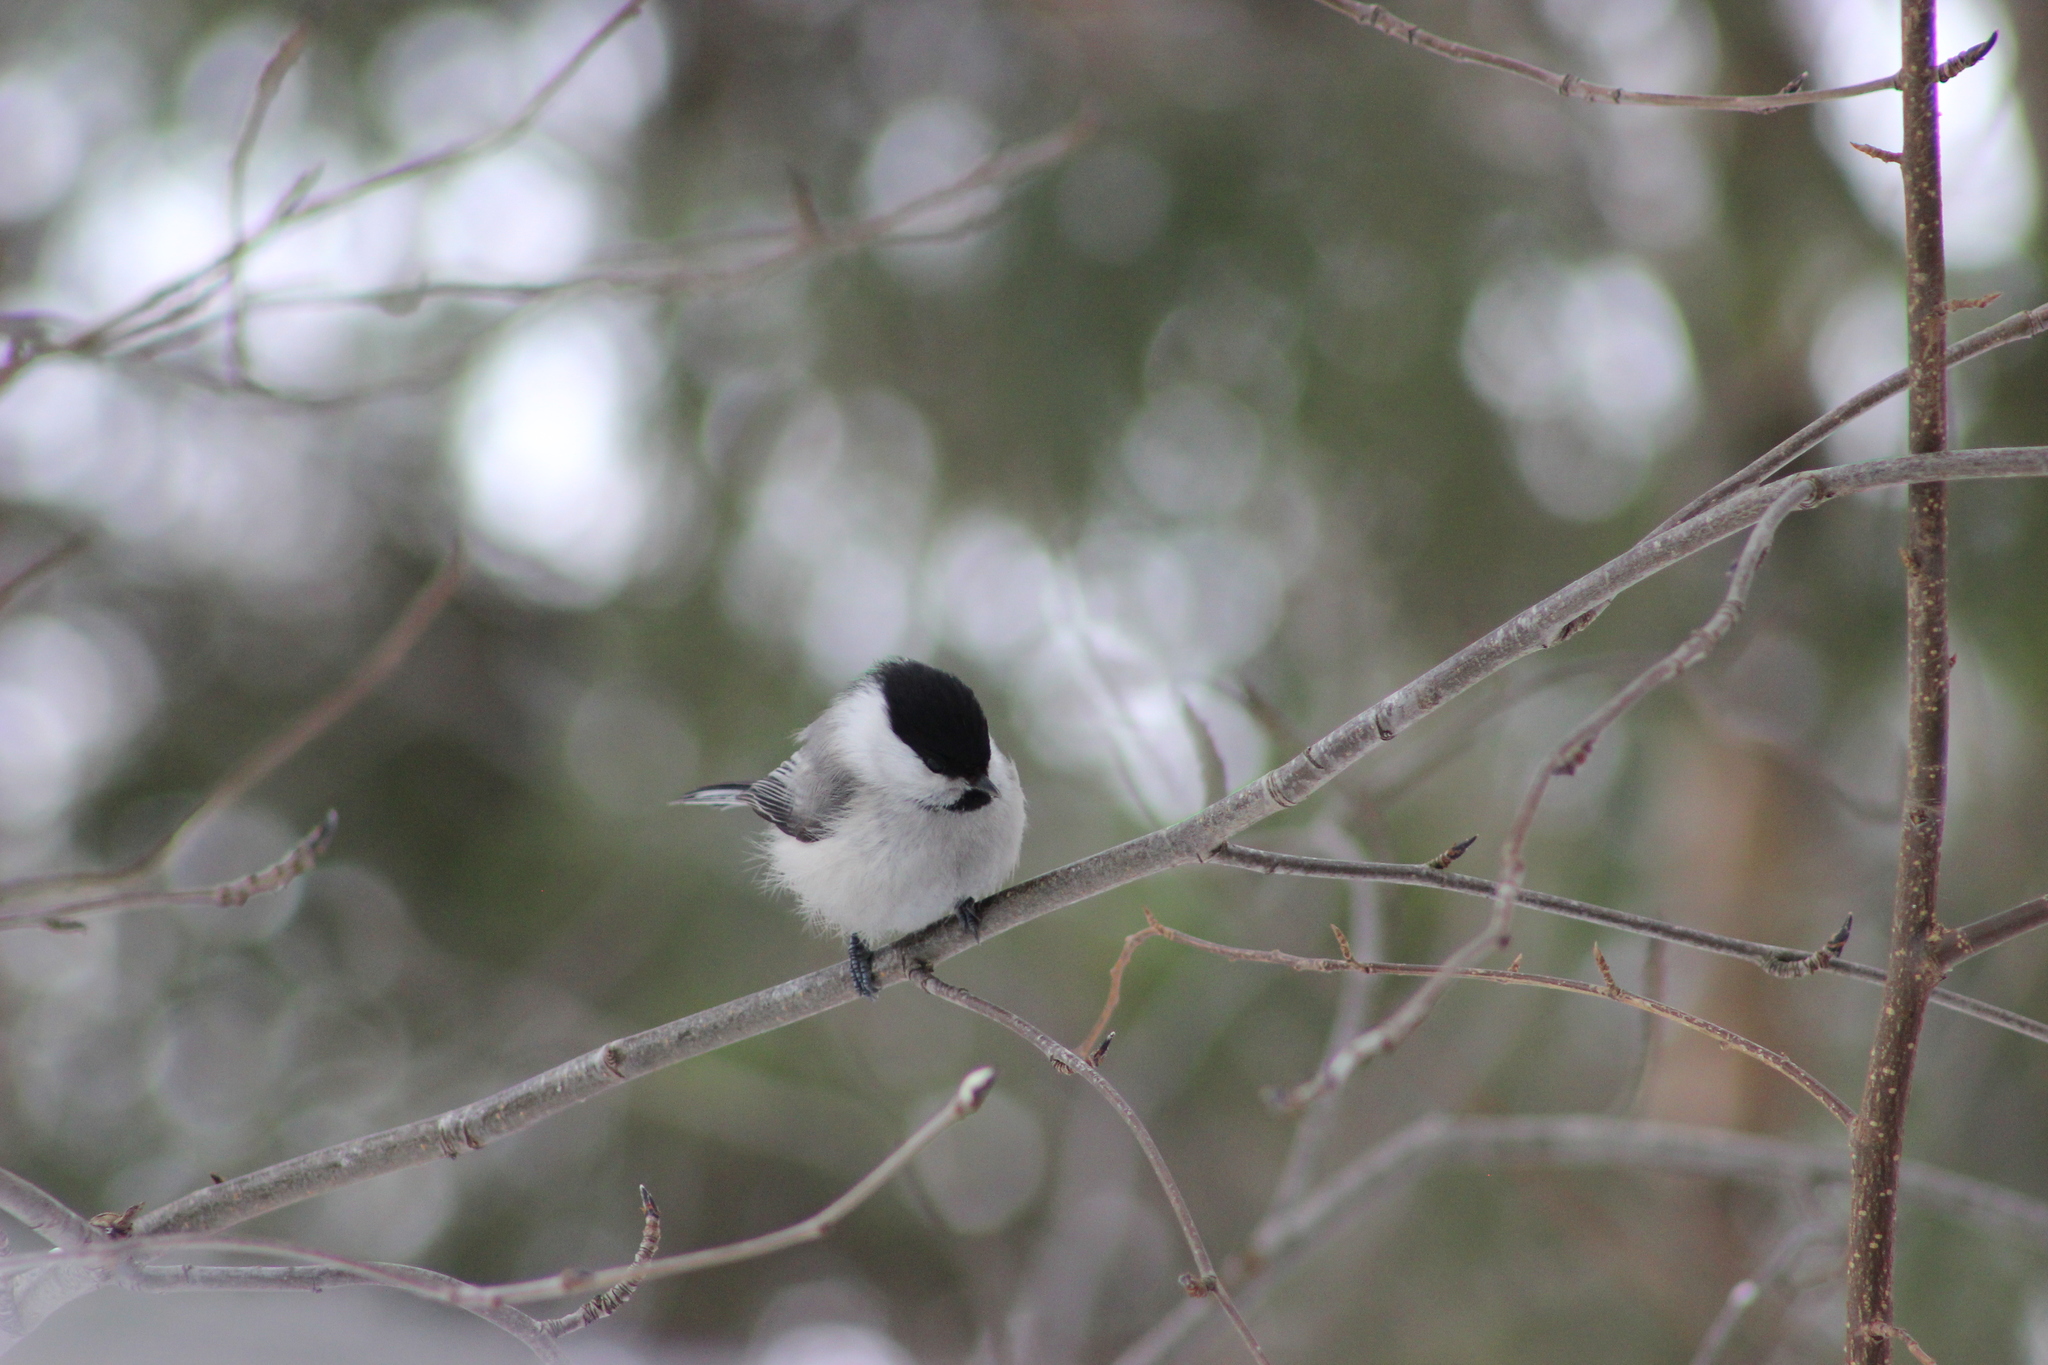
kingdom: Animalia
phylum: Chordata
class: Aves
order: Passeriformes
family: Paridae
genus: Poecile
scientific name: Poecile montanus
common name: Willow tit
